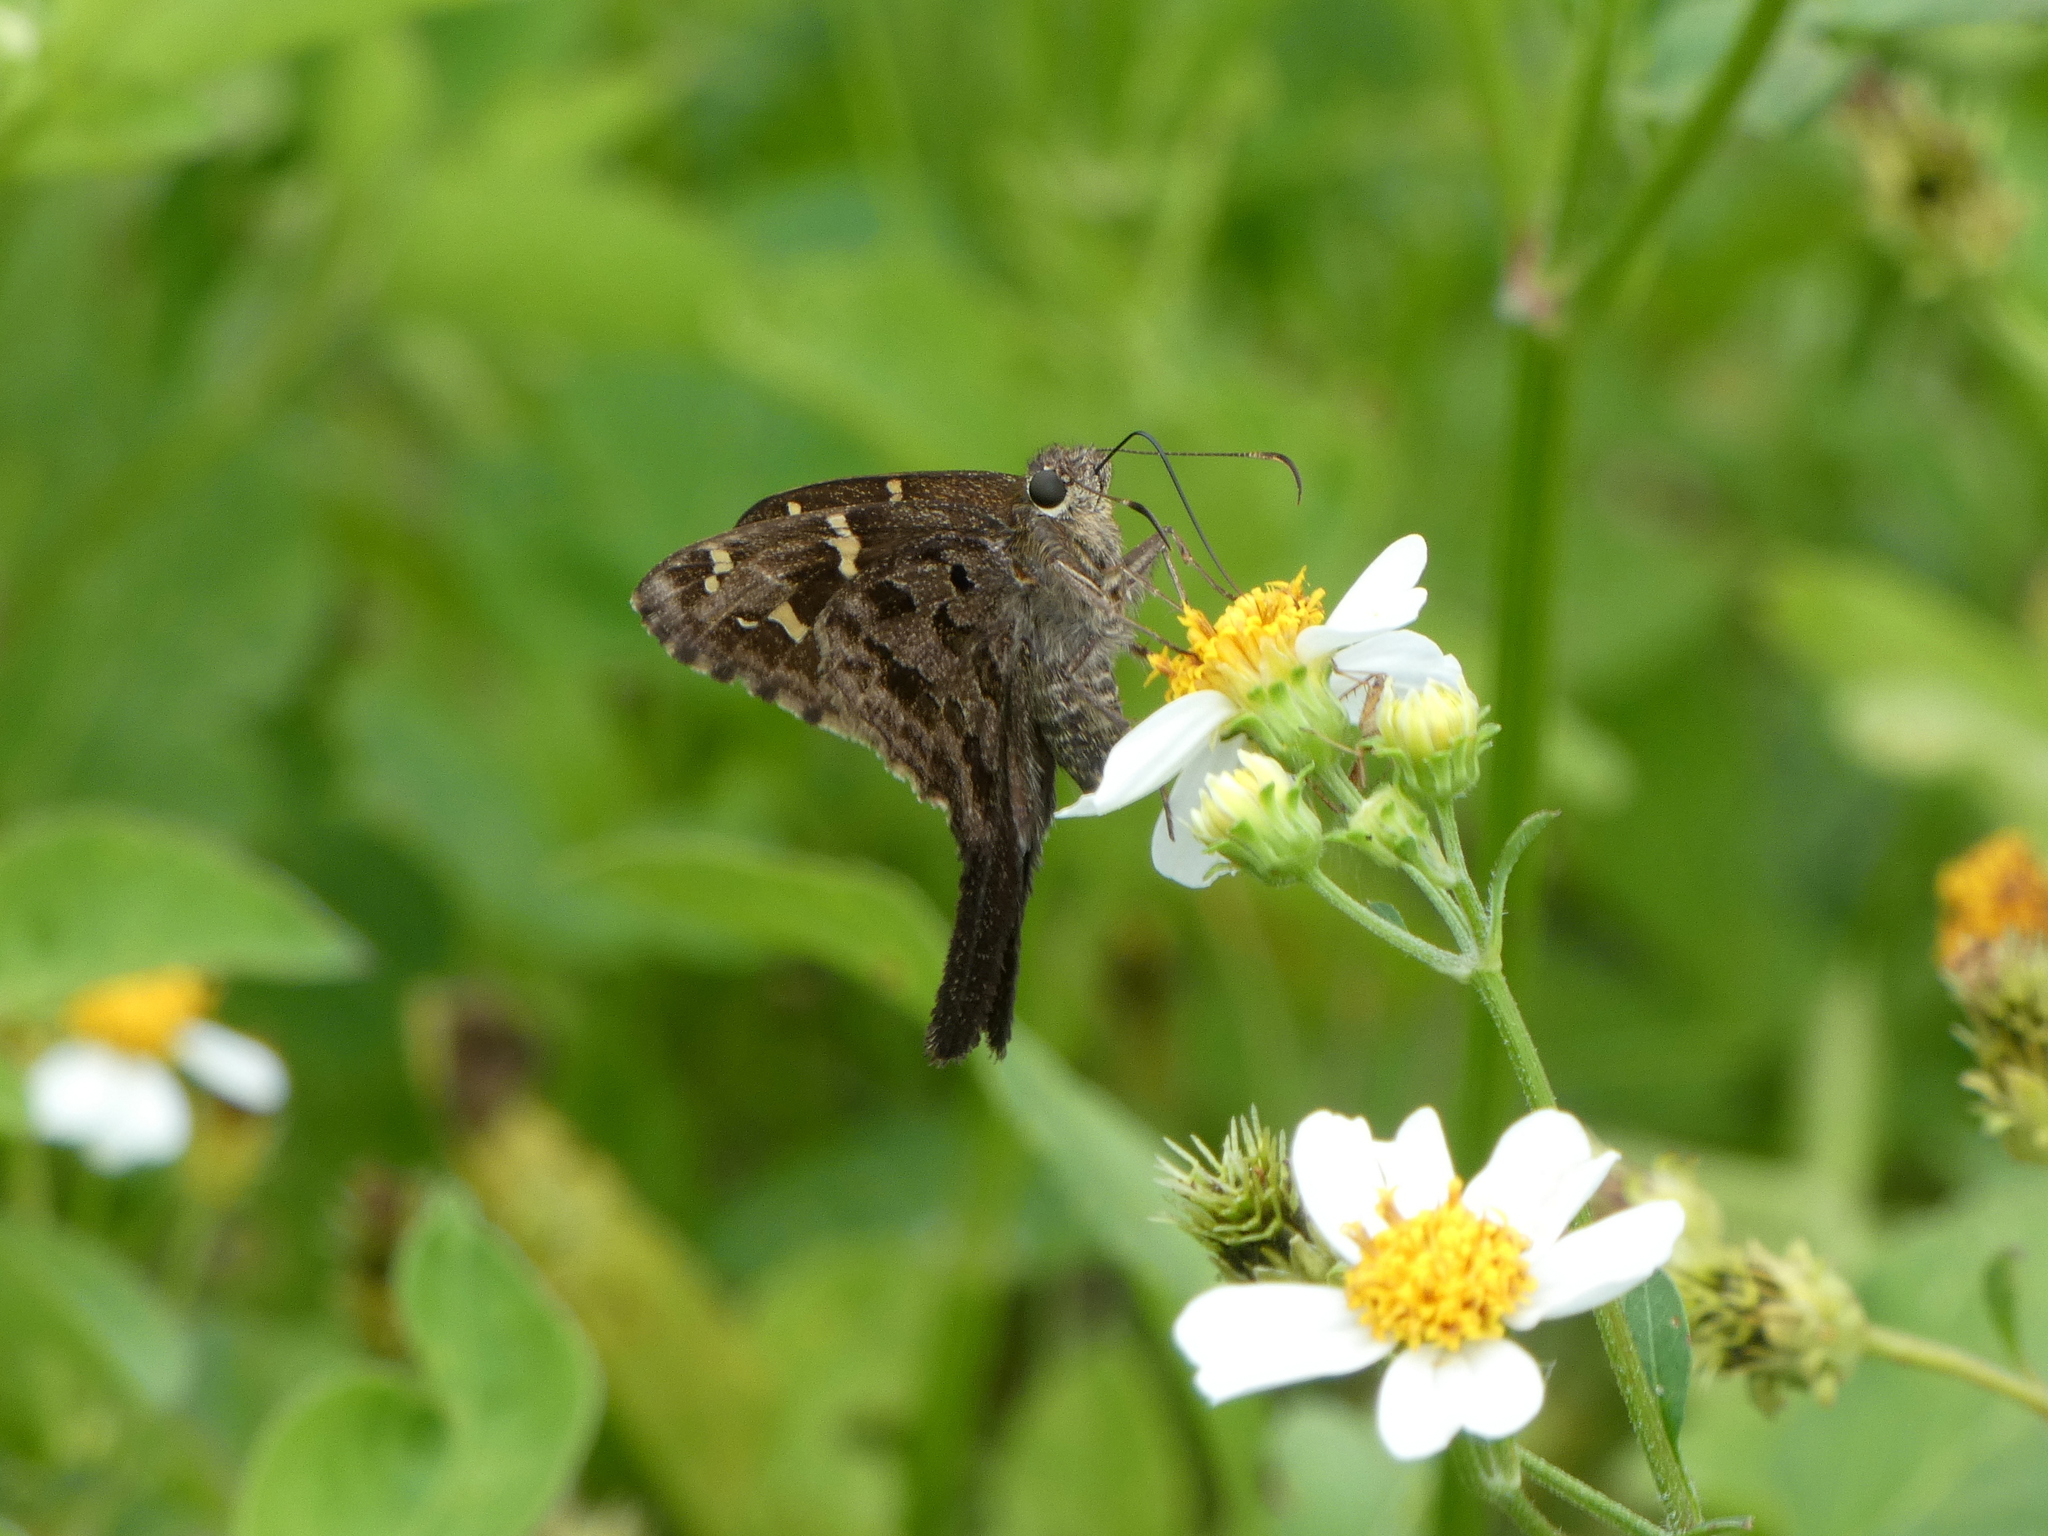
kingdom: Animalia
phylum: Arthropoda
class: Insecta
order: Lepidoptera
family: Hesperiidae
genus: Thorybes
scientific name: Thorybes
